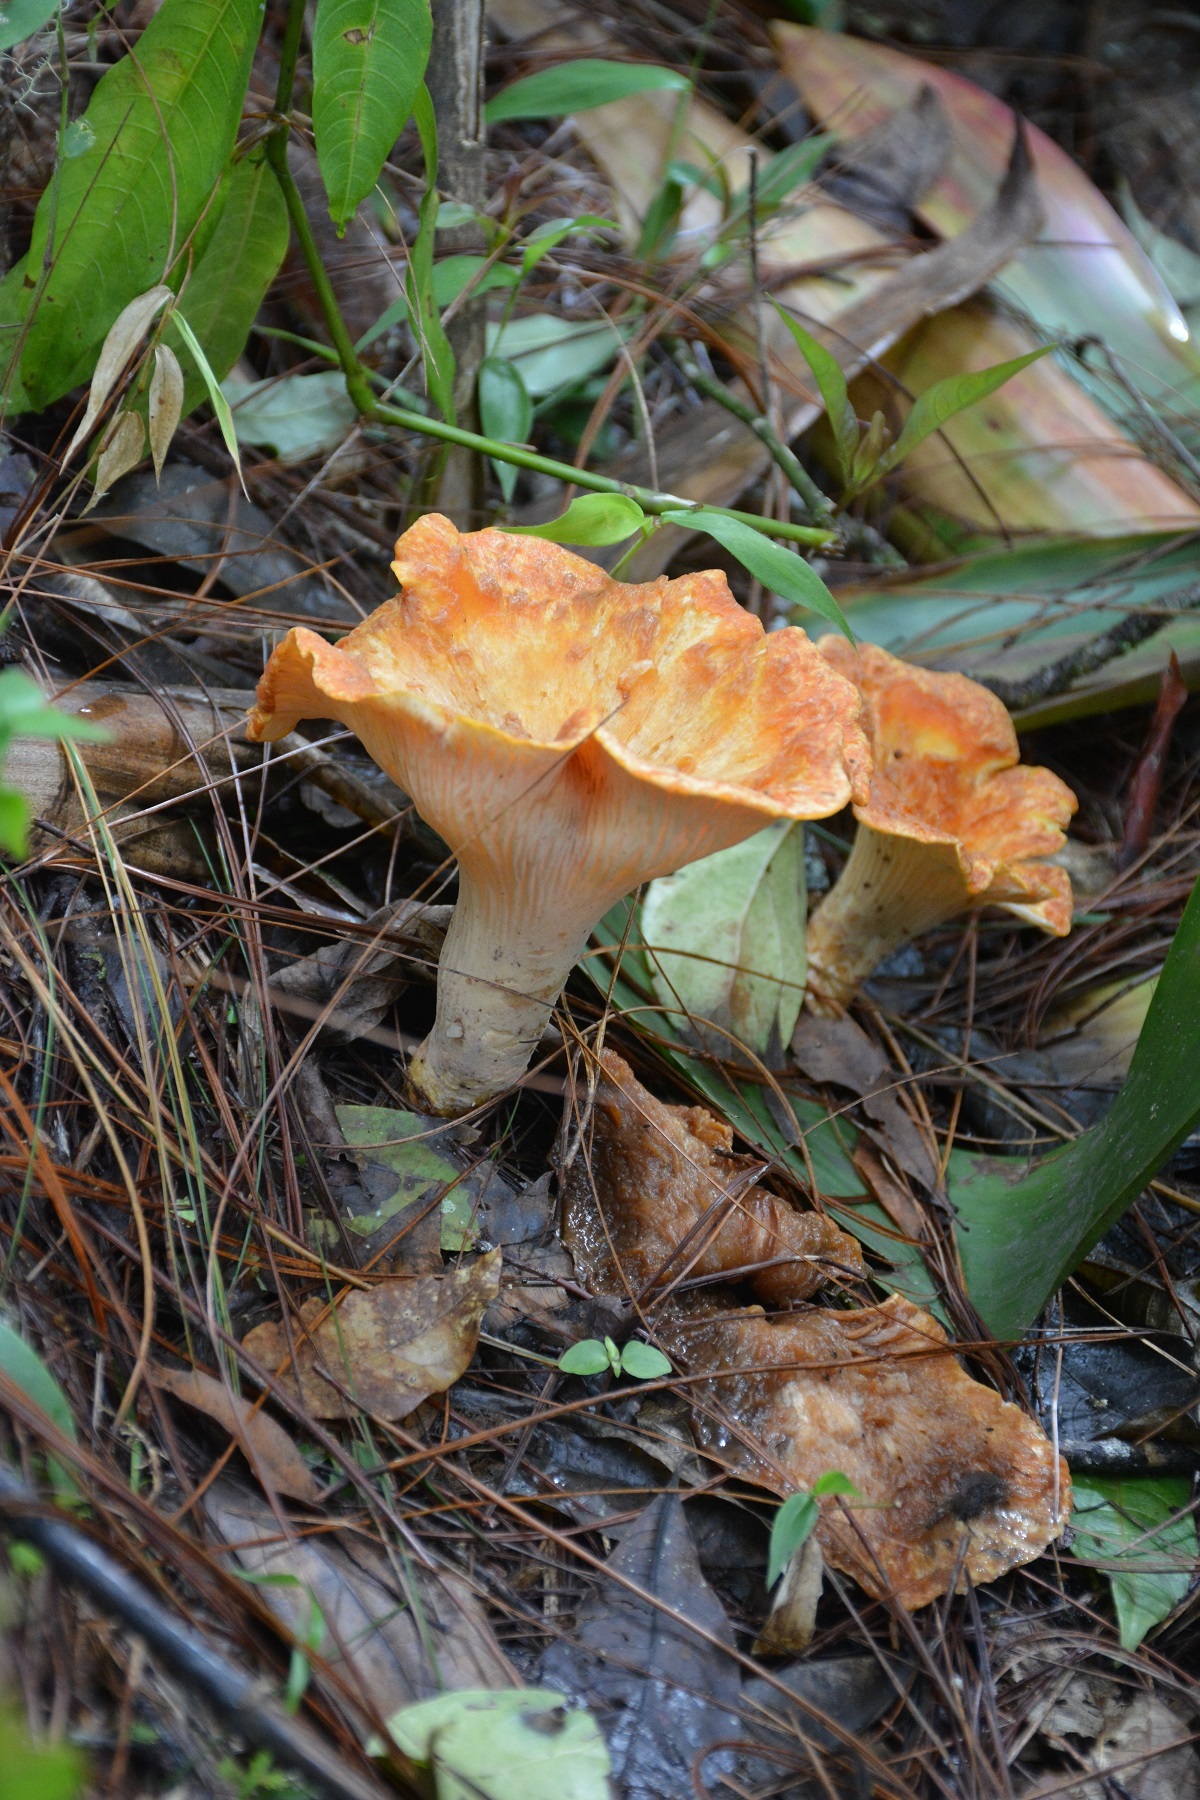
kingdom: Fungi
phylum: Basidiomycota
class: Agaricomycetes
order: Gomphales
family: Gomphaceae
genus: Turbinellus
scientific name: Turbinellus floccosus
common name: Scaly chanterelle
